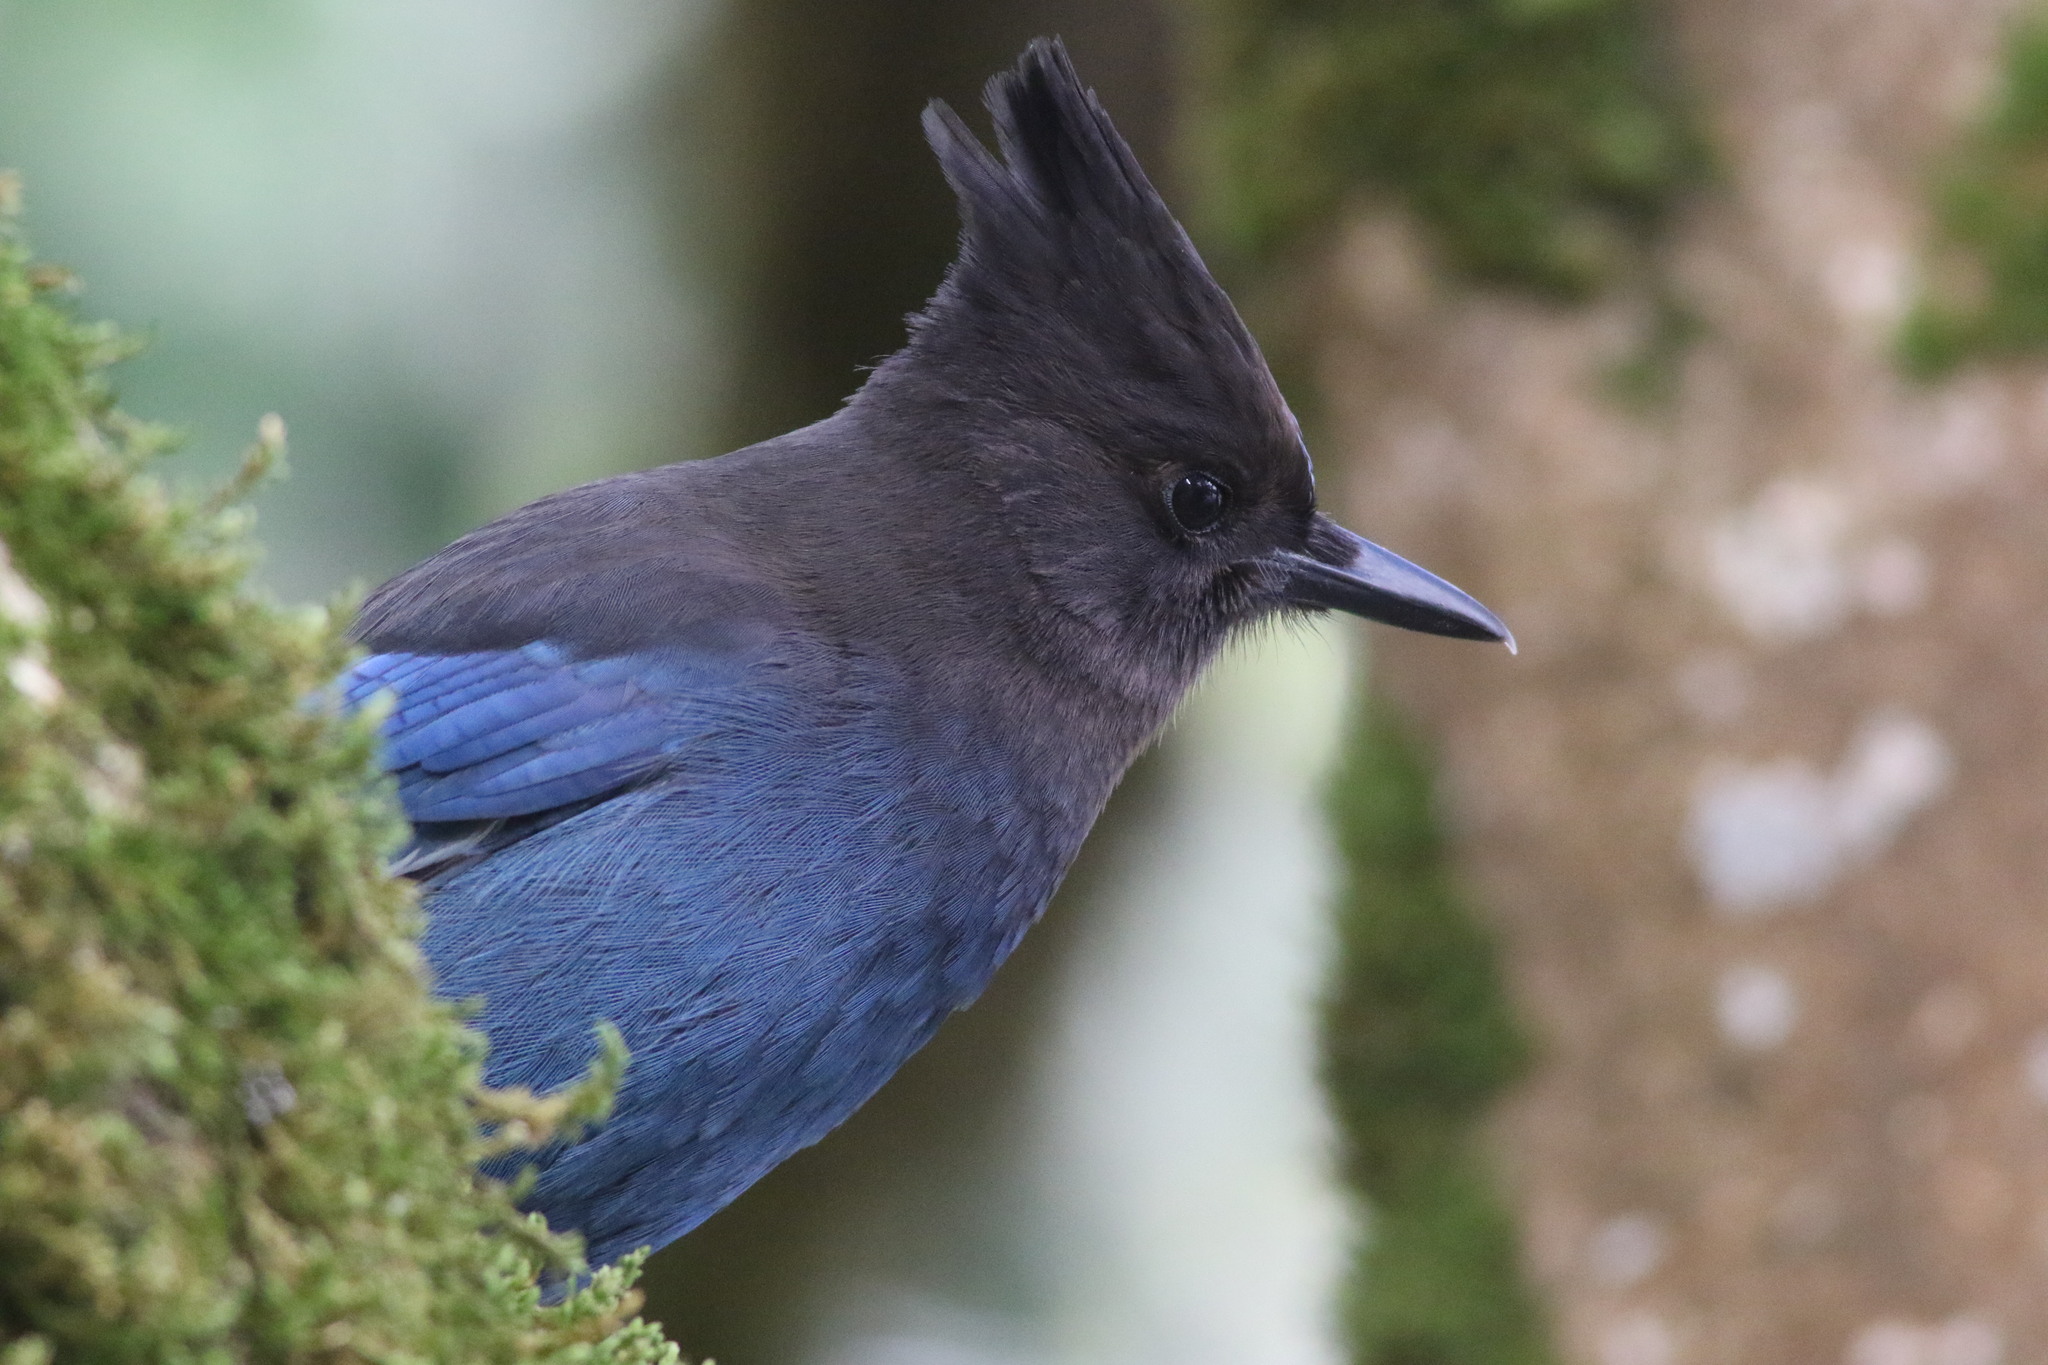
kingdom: Animalia
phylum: Chordata
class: Aves
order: Passeriformes
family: Corvidae
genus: Cyanocitta
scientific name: Cyanocitta stelleri
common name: Steller's jay
